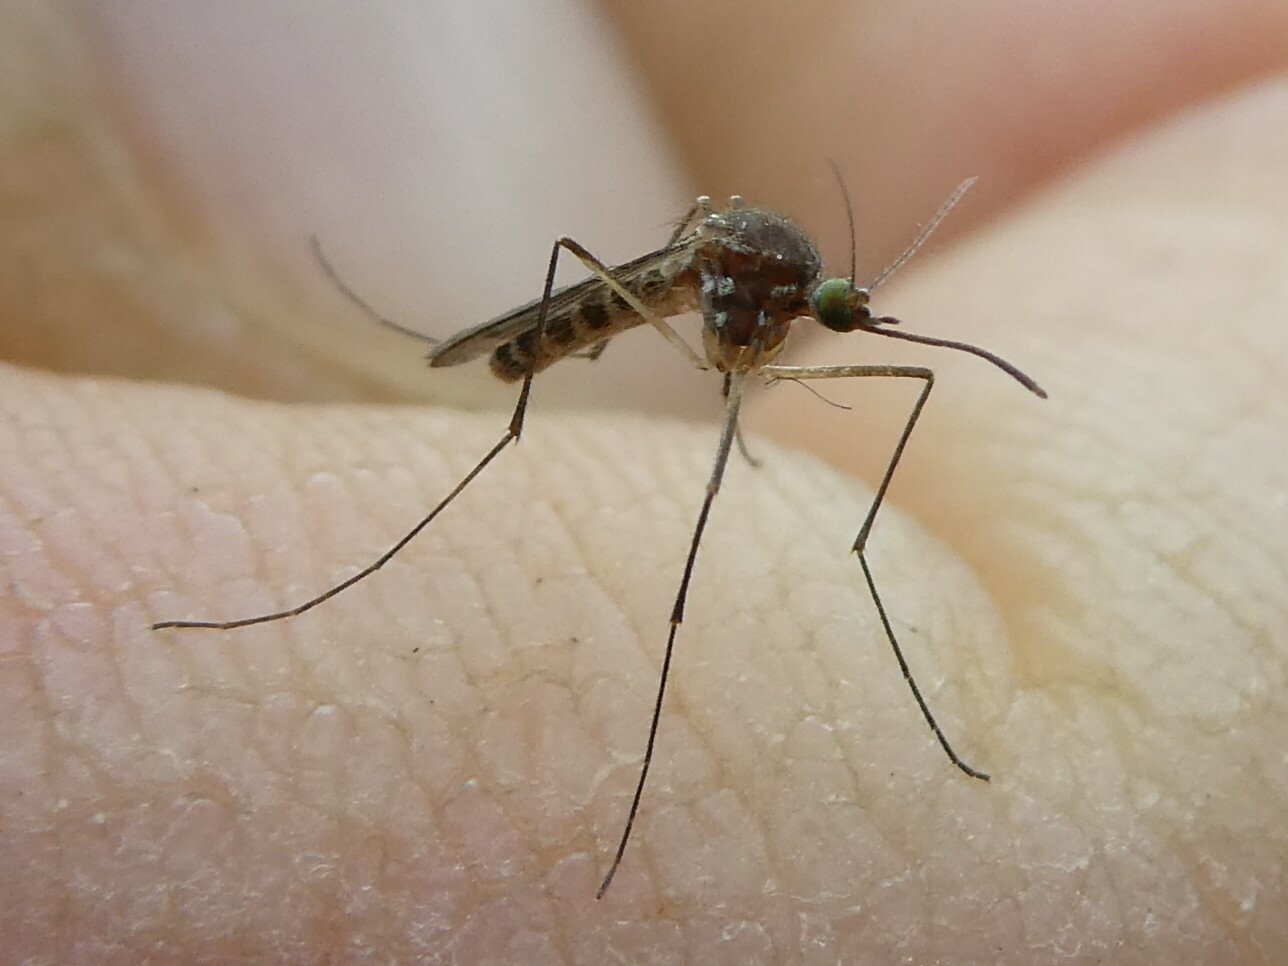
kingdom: Animalia
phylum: Arthropoda
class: Insecta
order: Diptera
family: Culicidae
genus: Culex
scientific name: Culex territans
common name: Northern frog-biting mosquito
